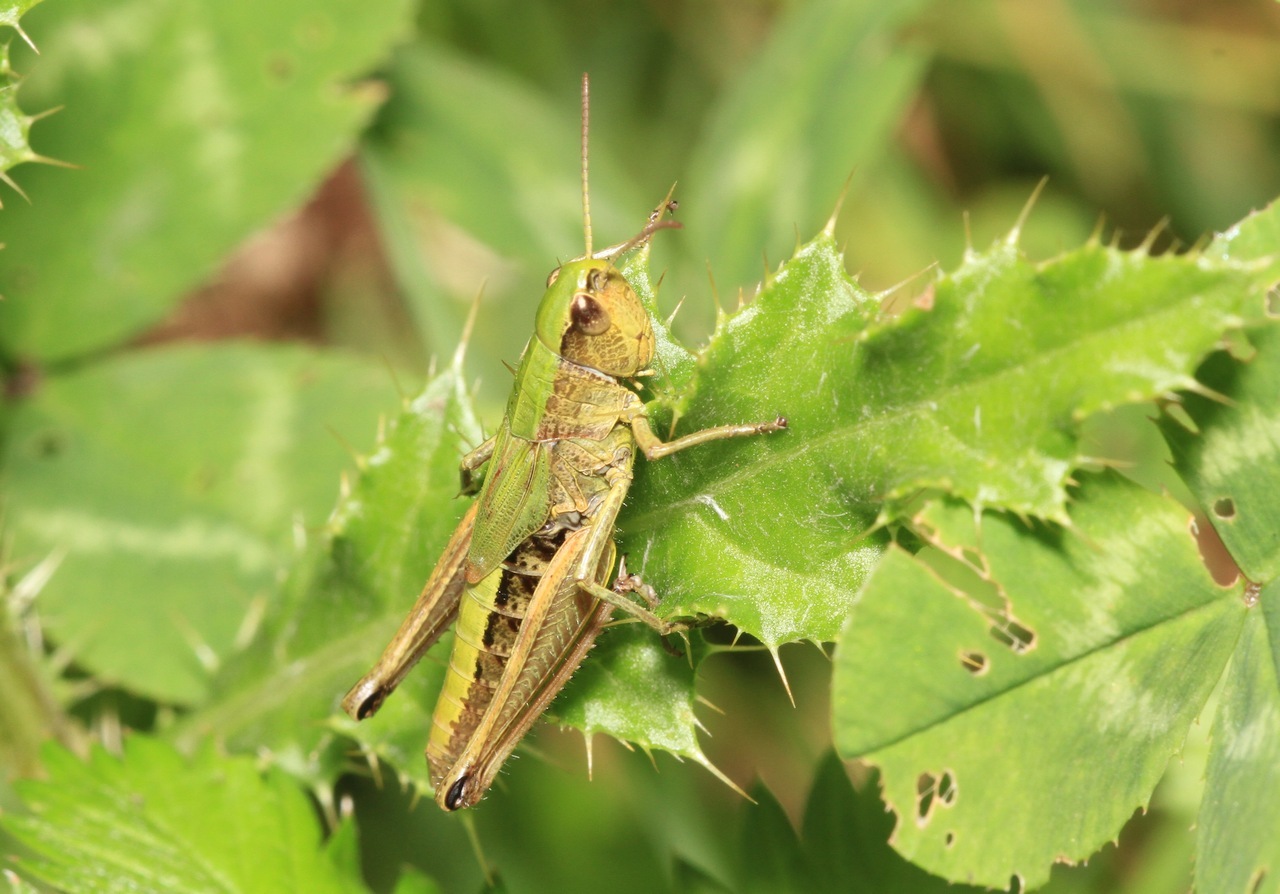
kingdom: Animalia
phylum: Arthropoda
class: Insecta
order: Orthoptera
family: Acrididae
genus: Pseudochorthippus
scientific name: Pseudochorthippus parallelus
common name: Meadow grasshopper
